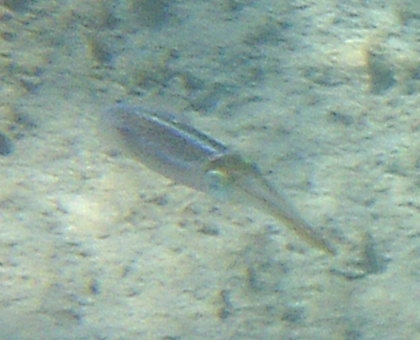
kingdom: Animalia
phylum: Mollusca
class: Cephalopoda
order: Myopsida
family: Loliginidae
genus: Sepioteuthis
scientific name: Sepioteuthis sepioidea
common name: Caribbean reef squid
